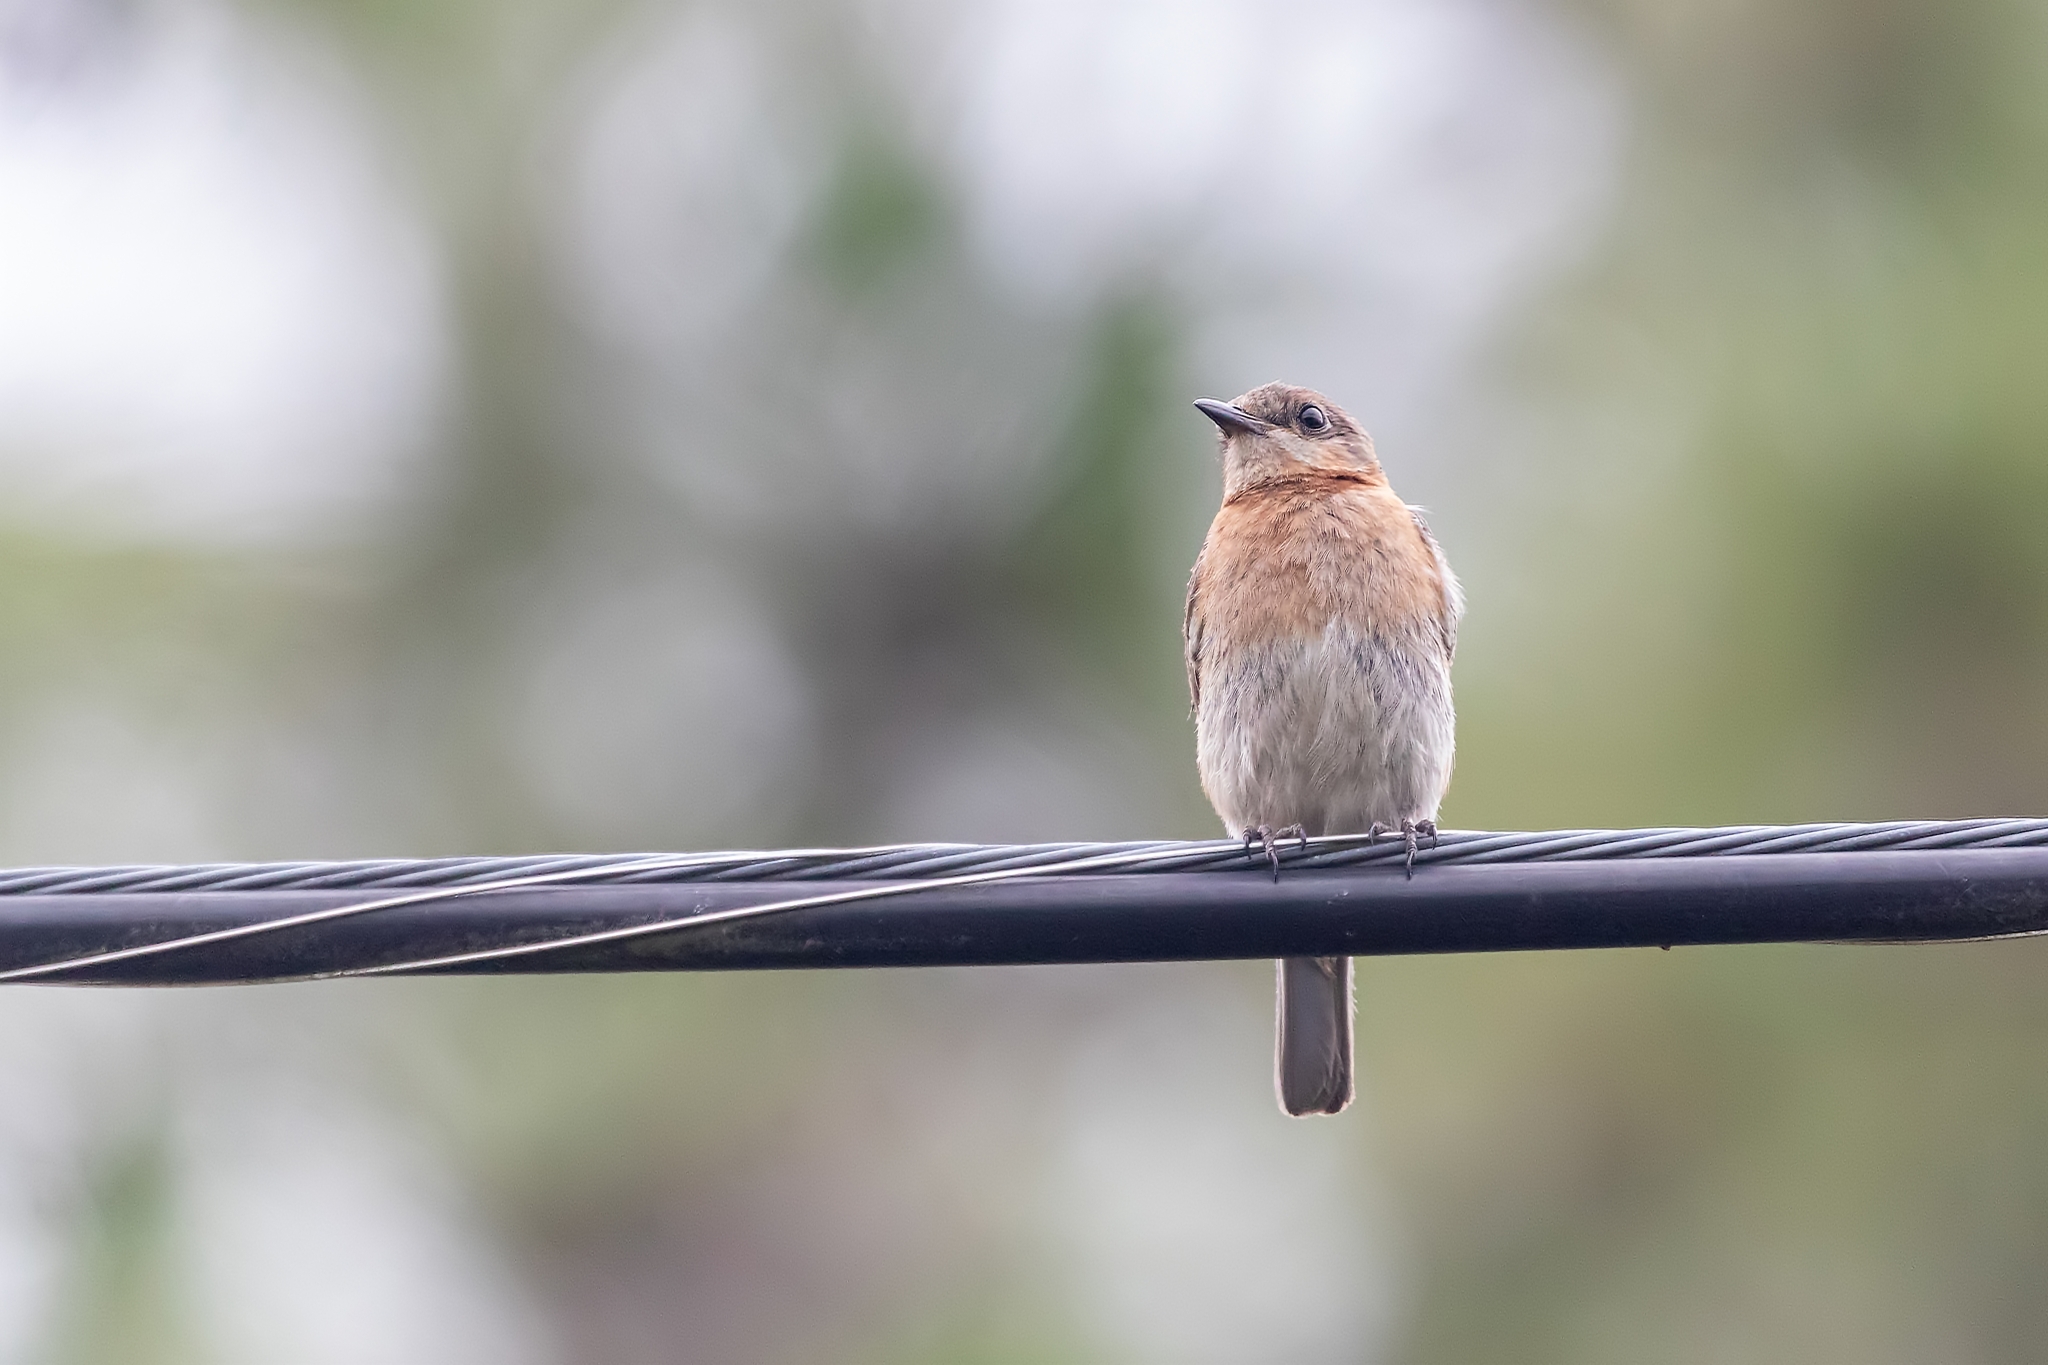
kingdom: Animalia
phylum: Chordata
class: Aves
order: Passeriformes
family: Turdidae
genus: Sialia
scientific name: Sialia sialis
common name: Eastern bluebird
